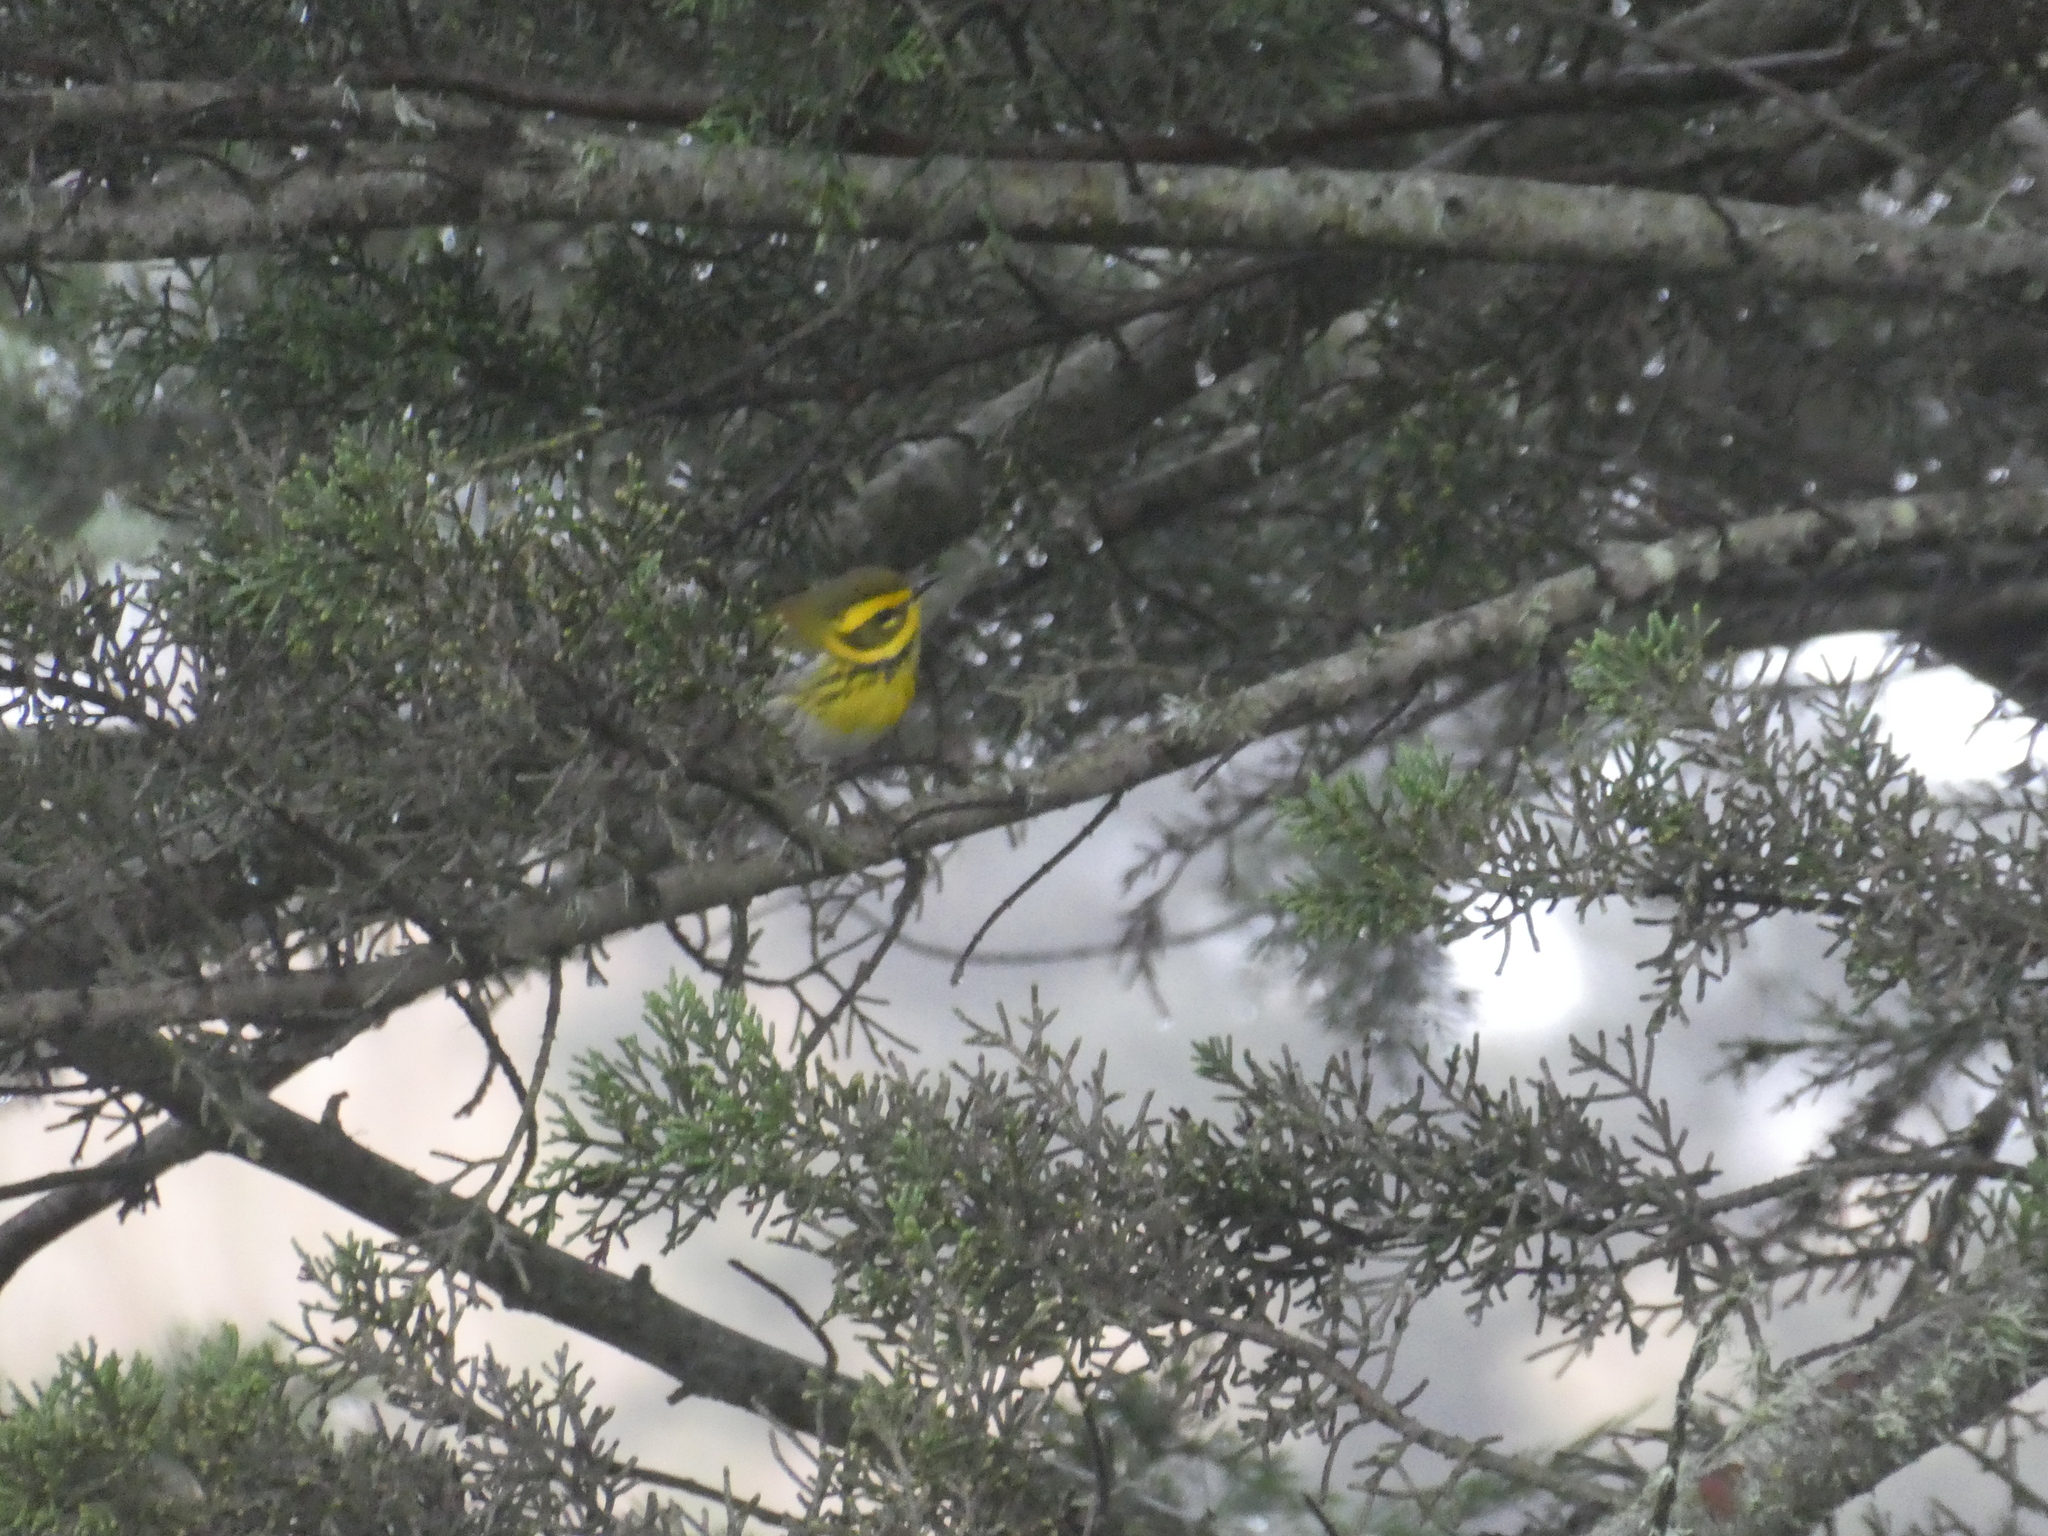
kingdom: Animalia
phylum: Chordata
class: Aves
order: Passeriformes
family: Parulidae
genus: Setophaga
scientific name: Setophaga townsendi
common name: Townsend's warbler
